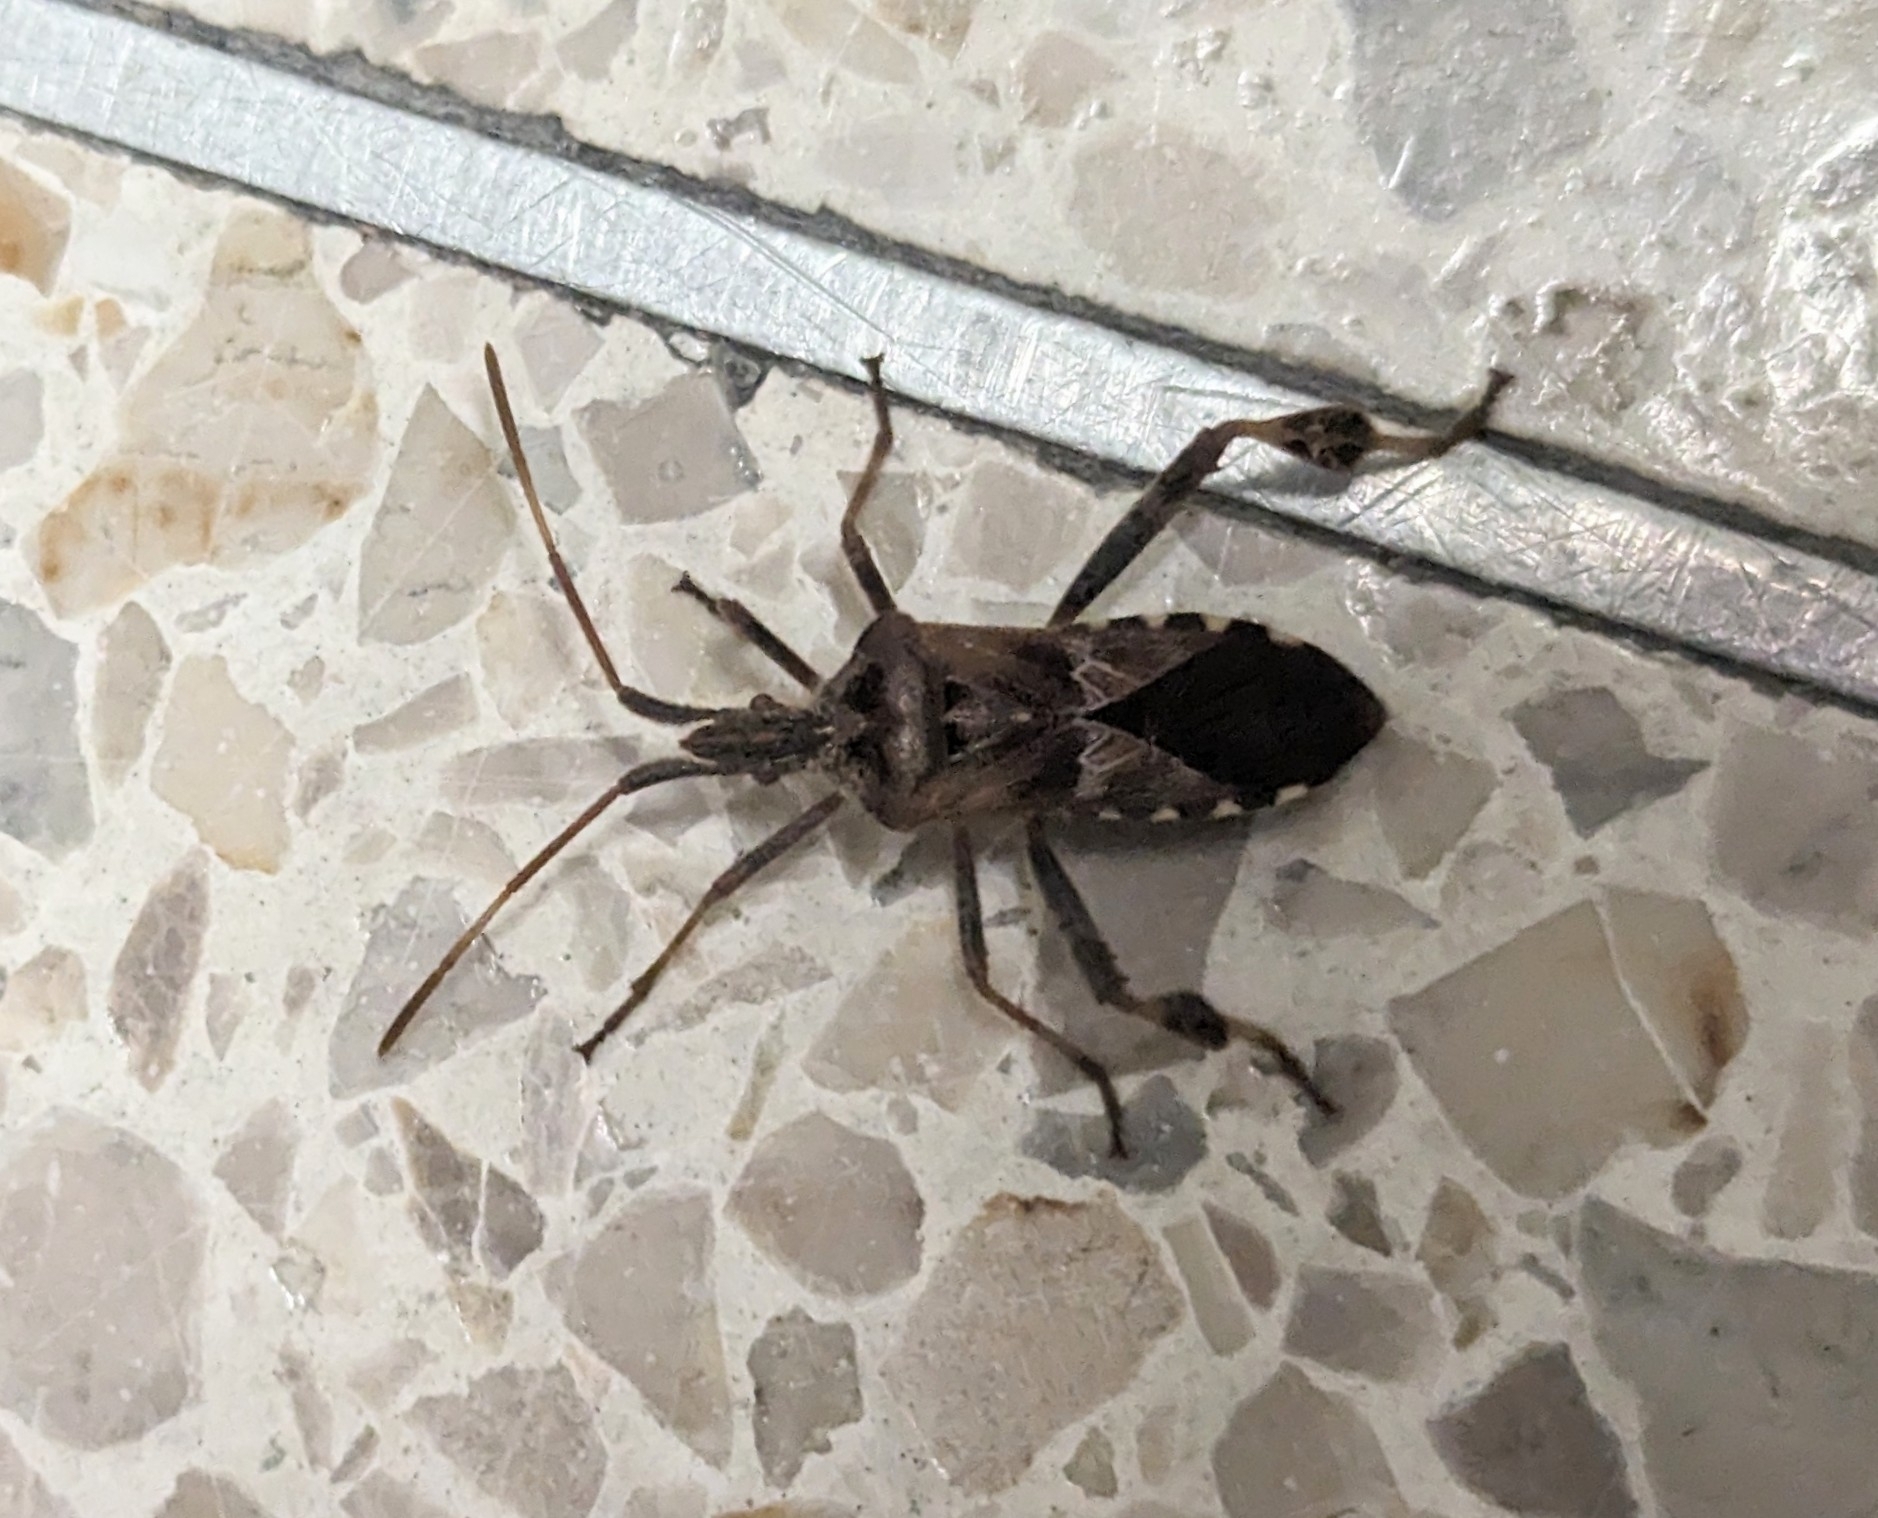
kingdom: Animalia
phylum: Arthropoda
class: Insecta
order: Hemiptera
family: Coreidae
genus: Leptoglossus
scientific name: Leptoglossus occidentalis
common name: Western conifer-seed bug
